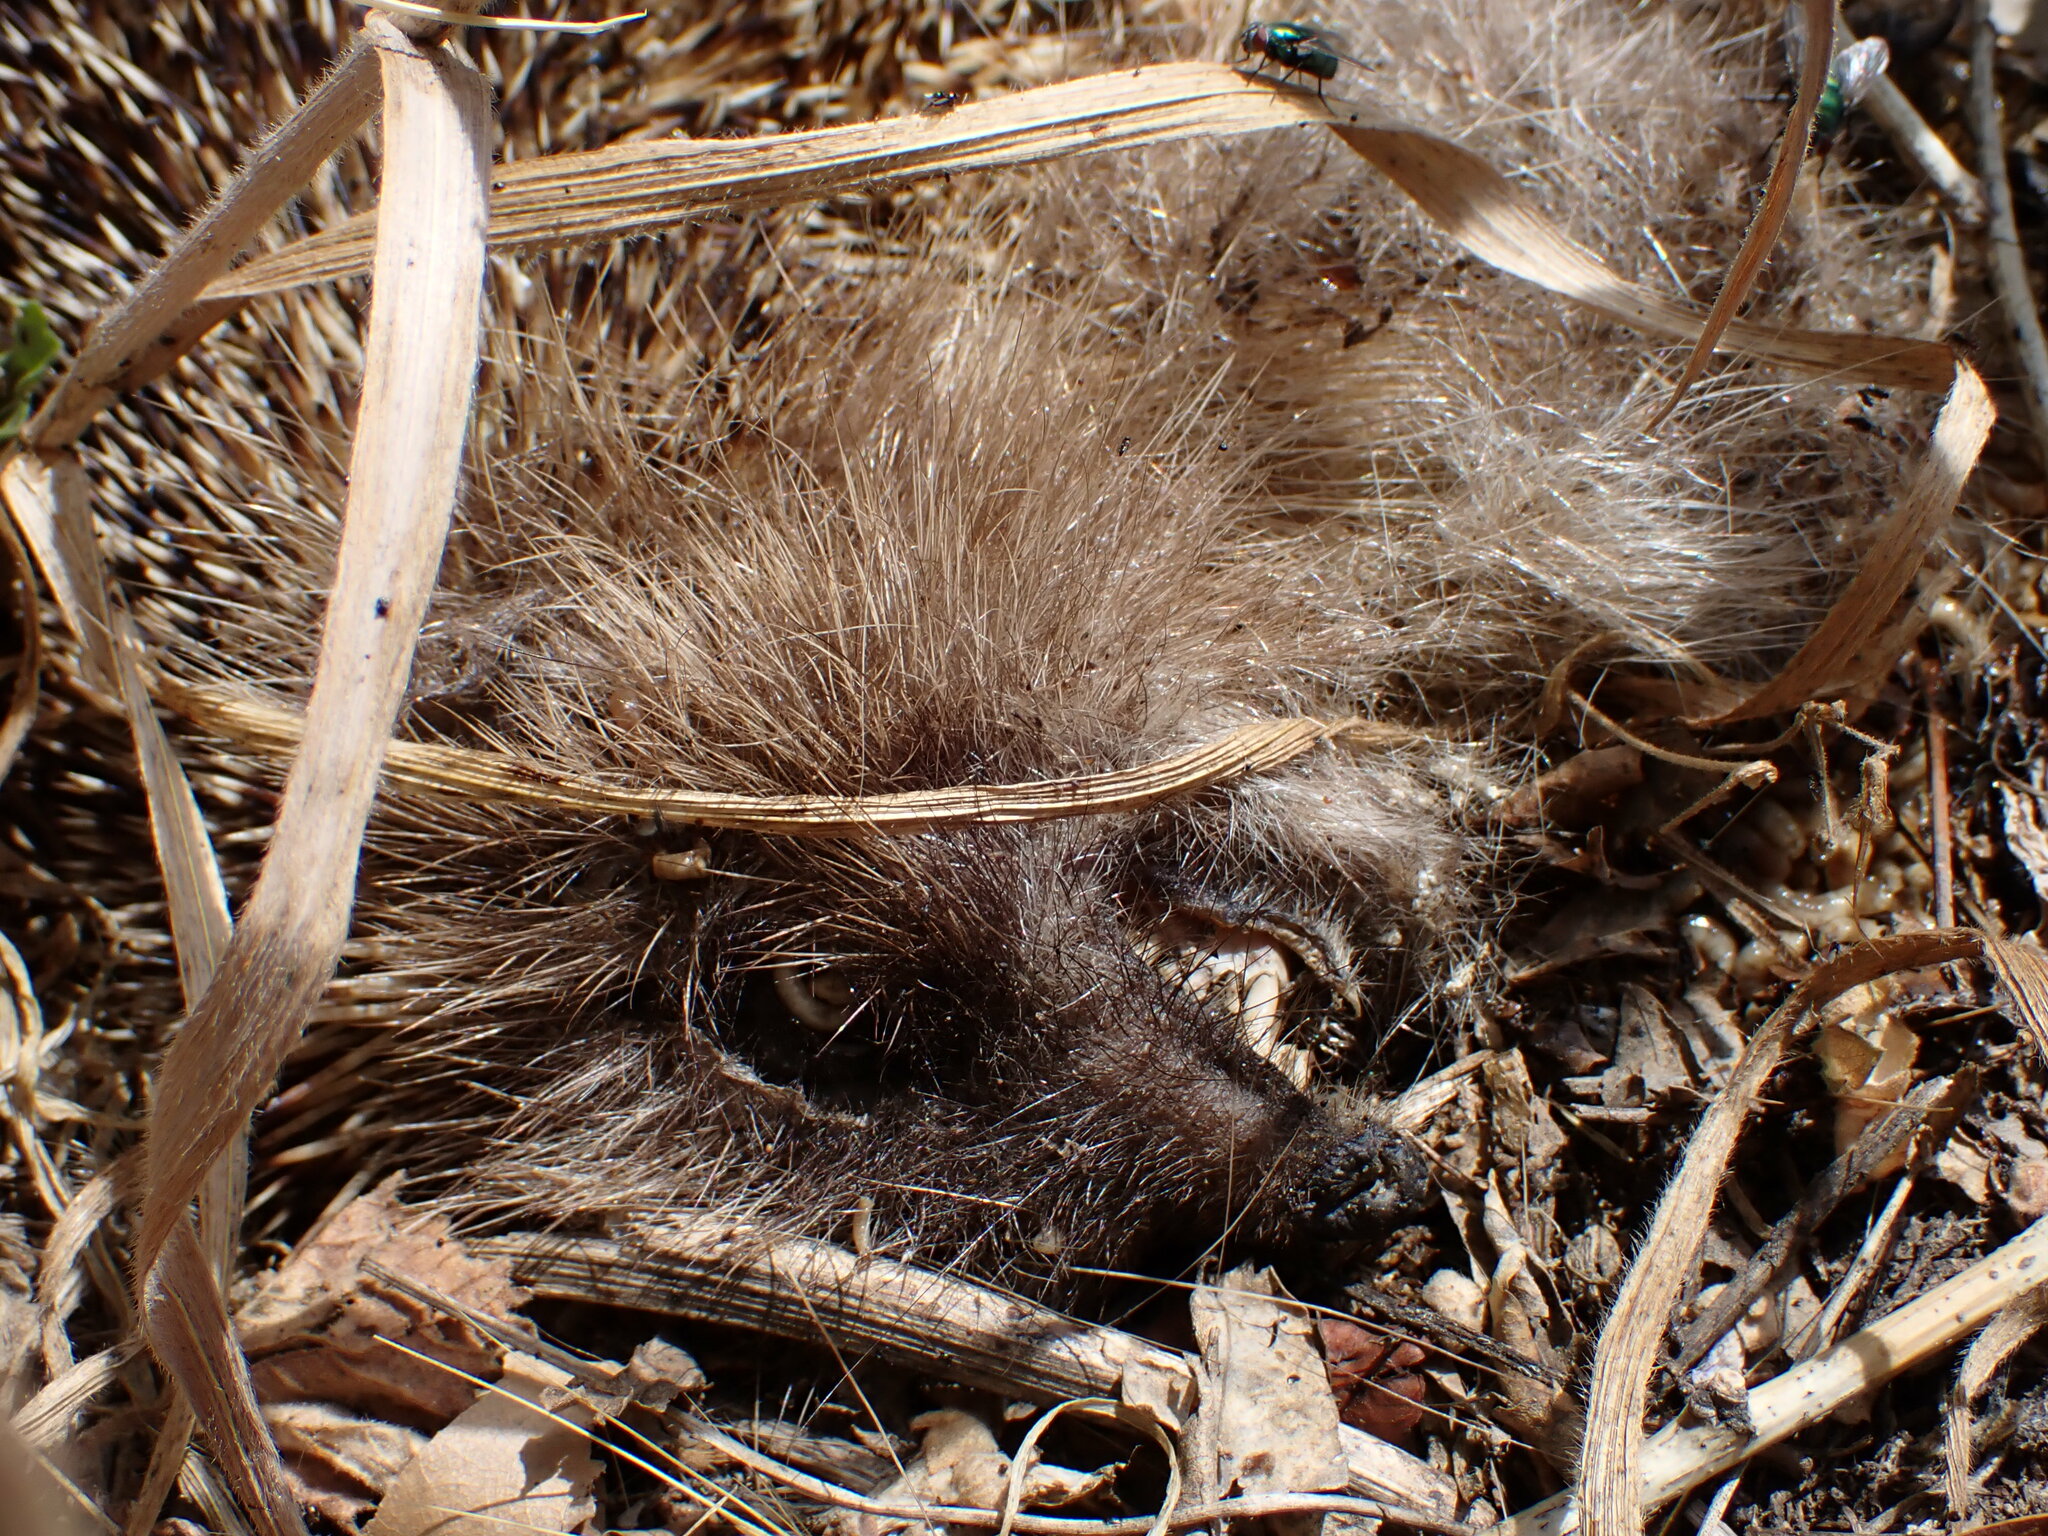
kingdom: Animalia
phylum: Chordata
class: Mammalia
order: Erinaceomorpha
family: Erinaceidae
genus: Erinaceus
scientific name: Erinaceus europaeus
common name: West european hedgehog
